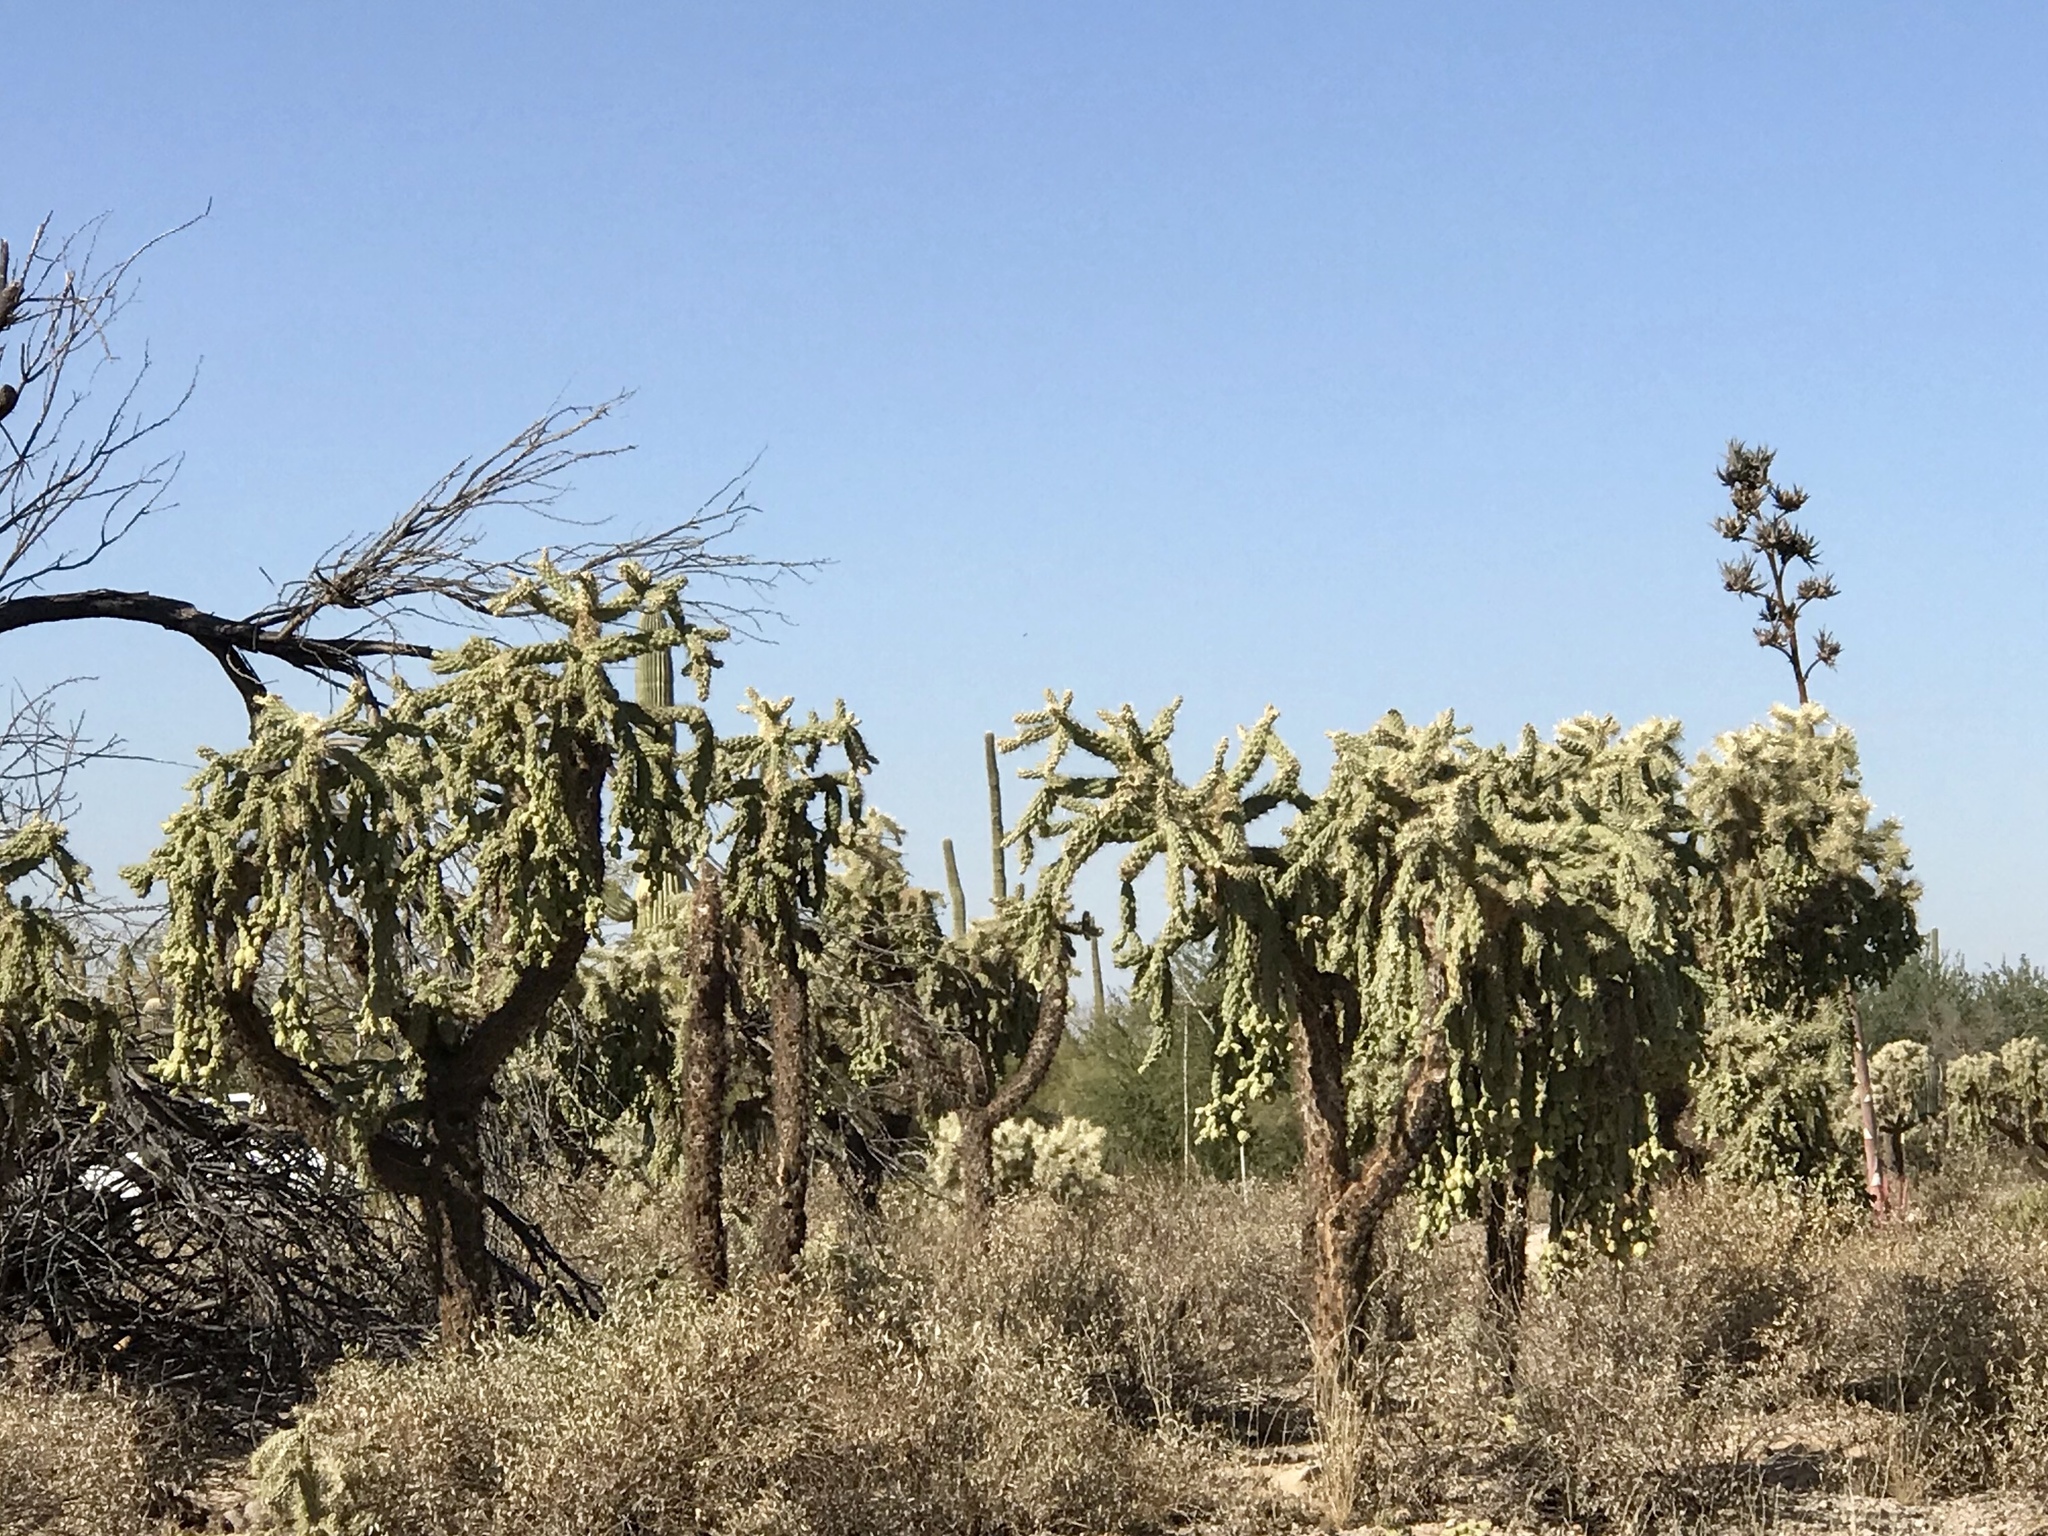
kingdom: Plantae
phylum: Tracheophyta
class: Magnoliopsida
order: Caryophyllales
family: Cactaceae
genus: Cylindropuntia
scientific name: Cylindropuntia fulgida
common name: Jumping cholla
